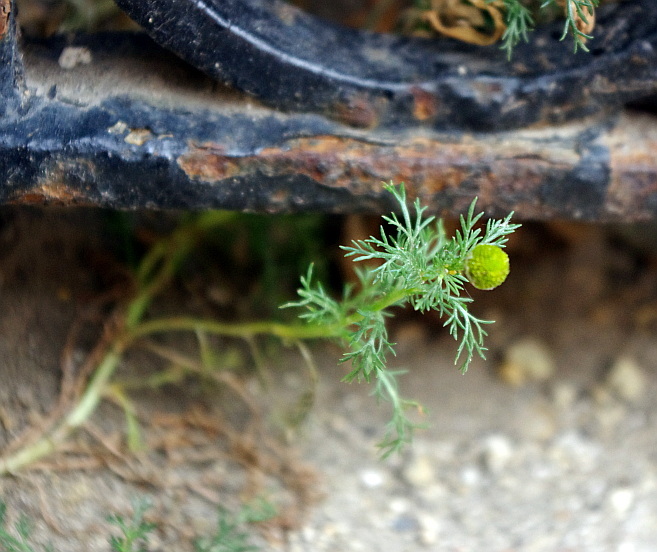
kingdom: Plantae
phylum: Tracheophyta
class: Magnoliopsida
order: Asterales
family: Asteraceae
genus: Matricaria
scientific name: Matricaria discoidea
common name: Disc mayweed
